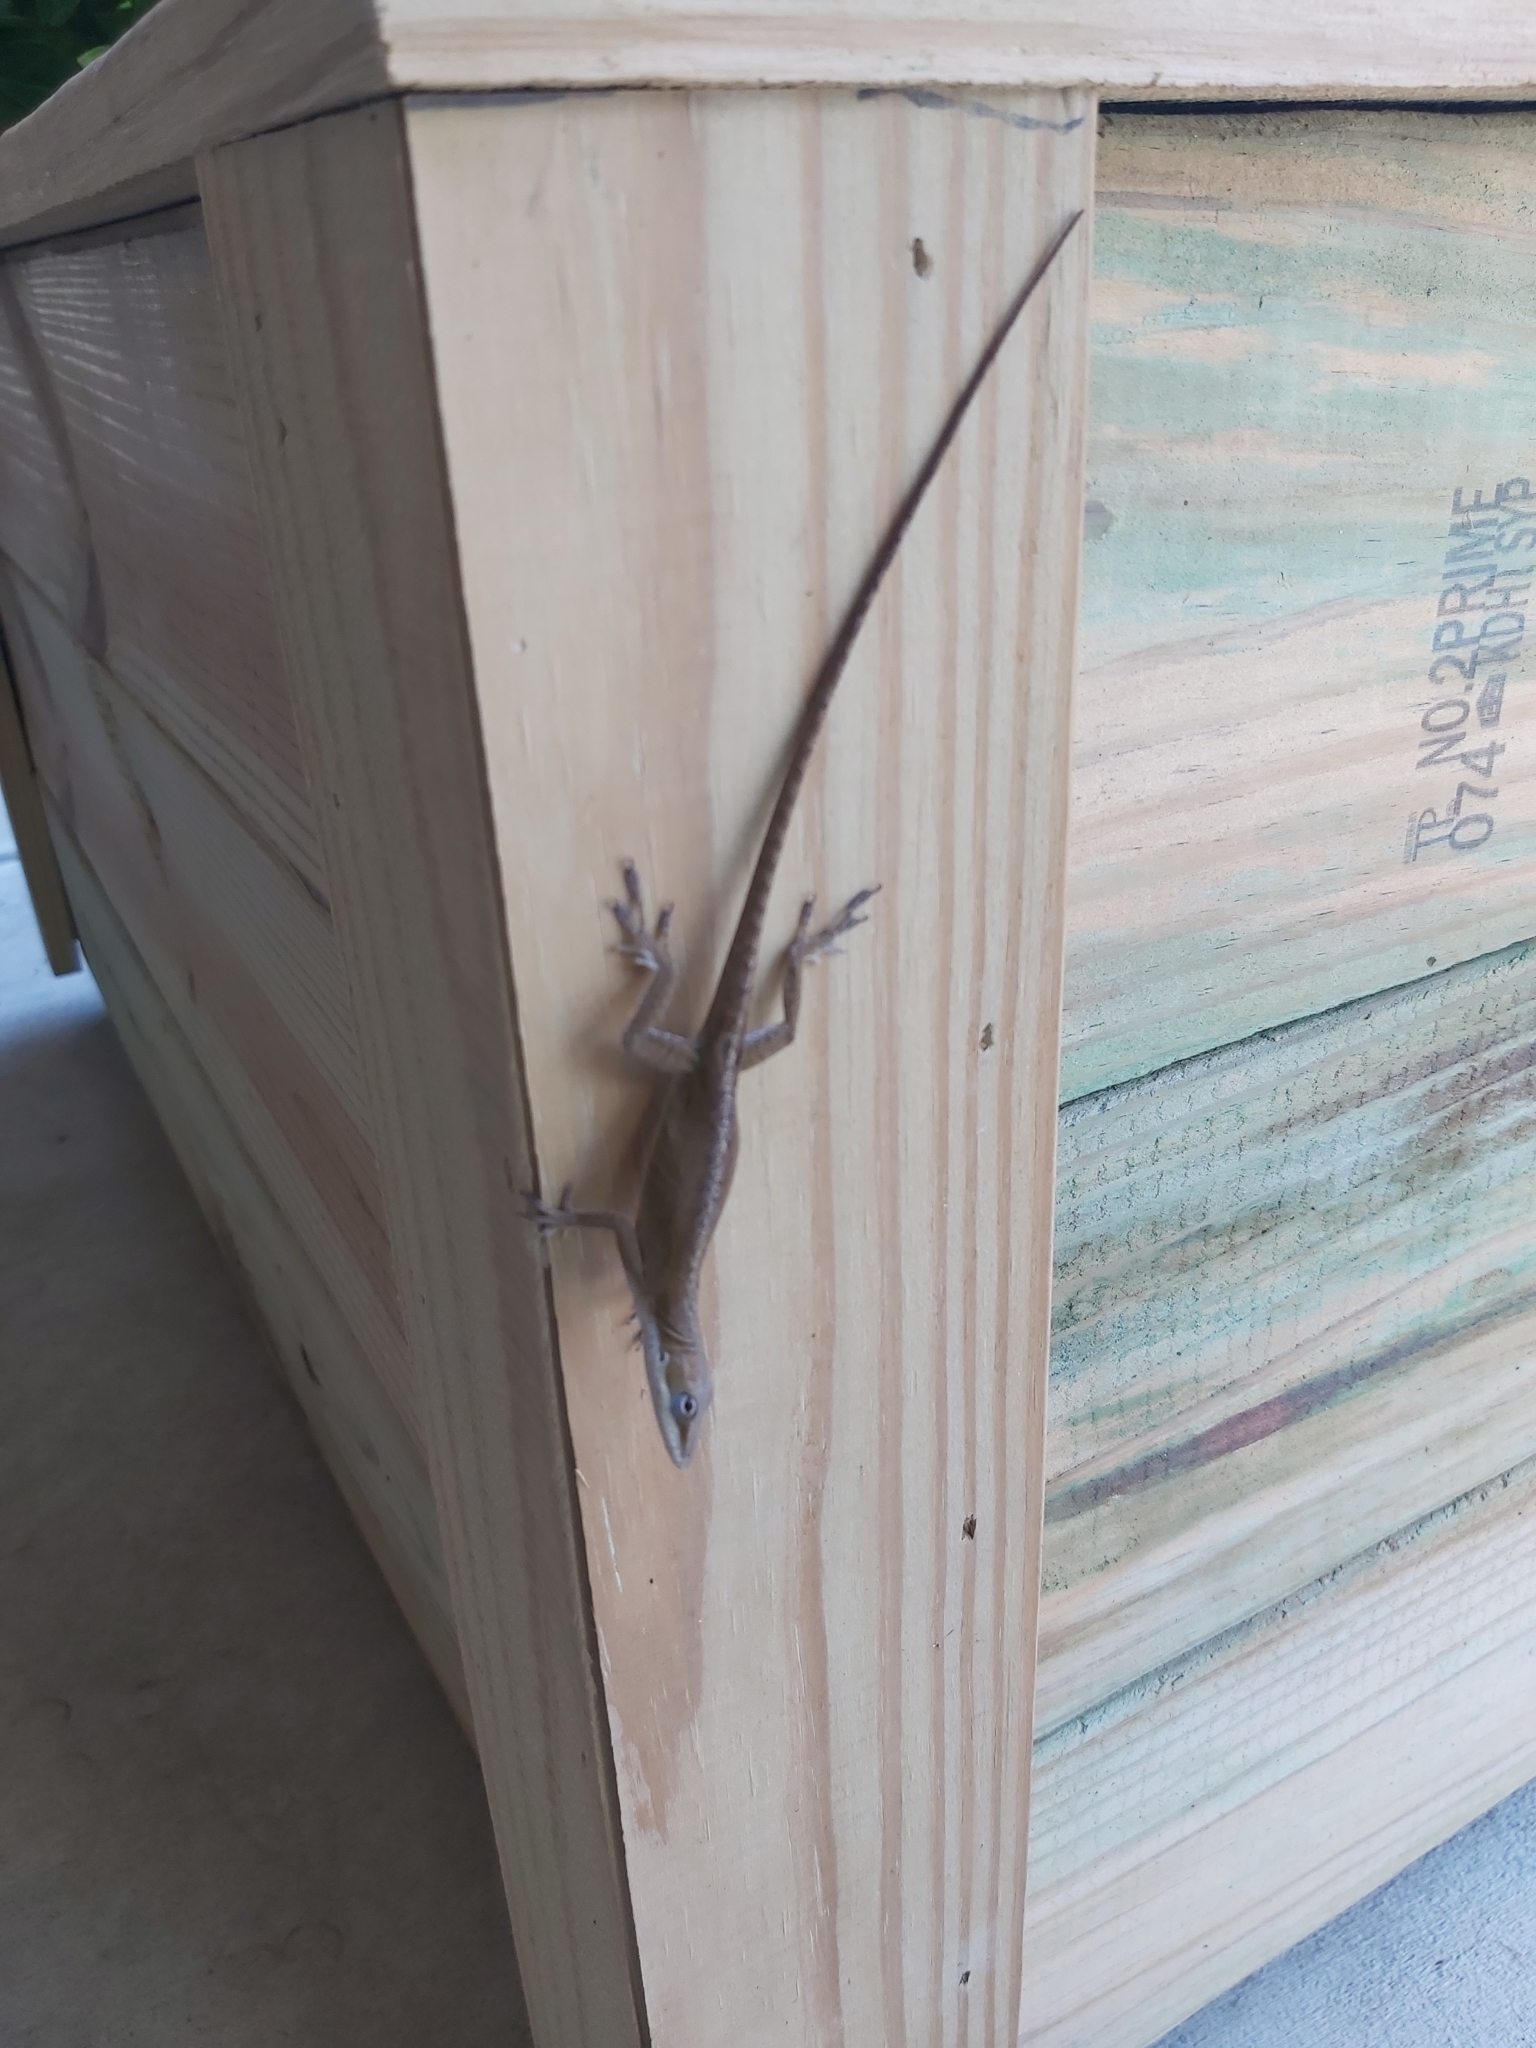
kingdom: Animalia
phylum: Chordata
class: Squamata
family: Dactyloidae
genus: Anolis
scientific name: Anolis carolinensis
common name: Green anole
